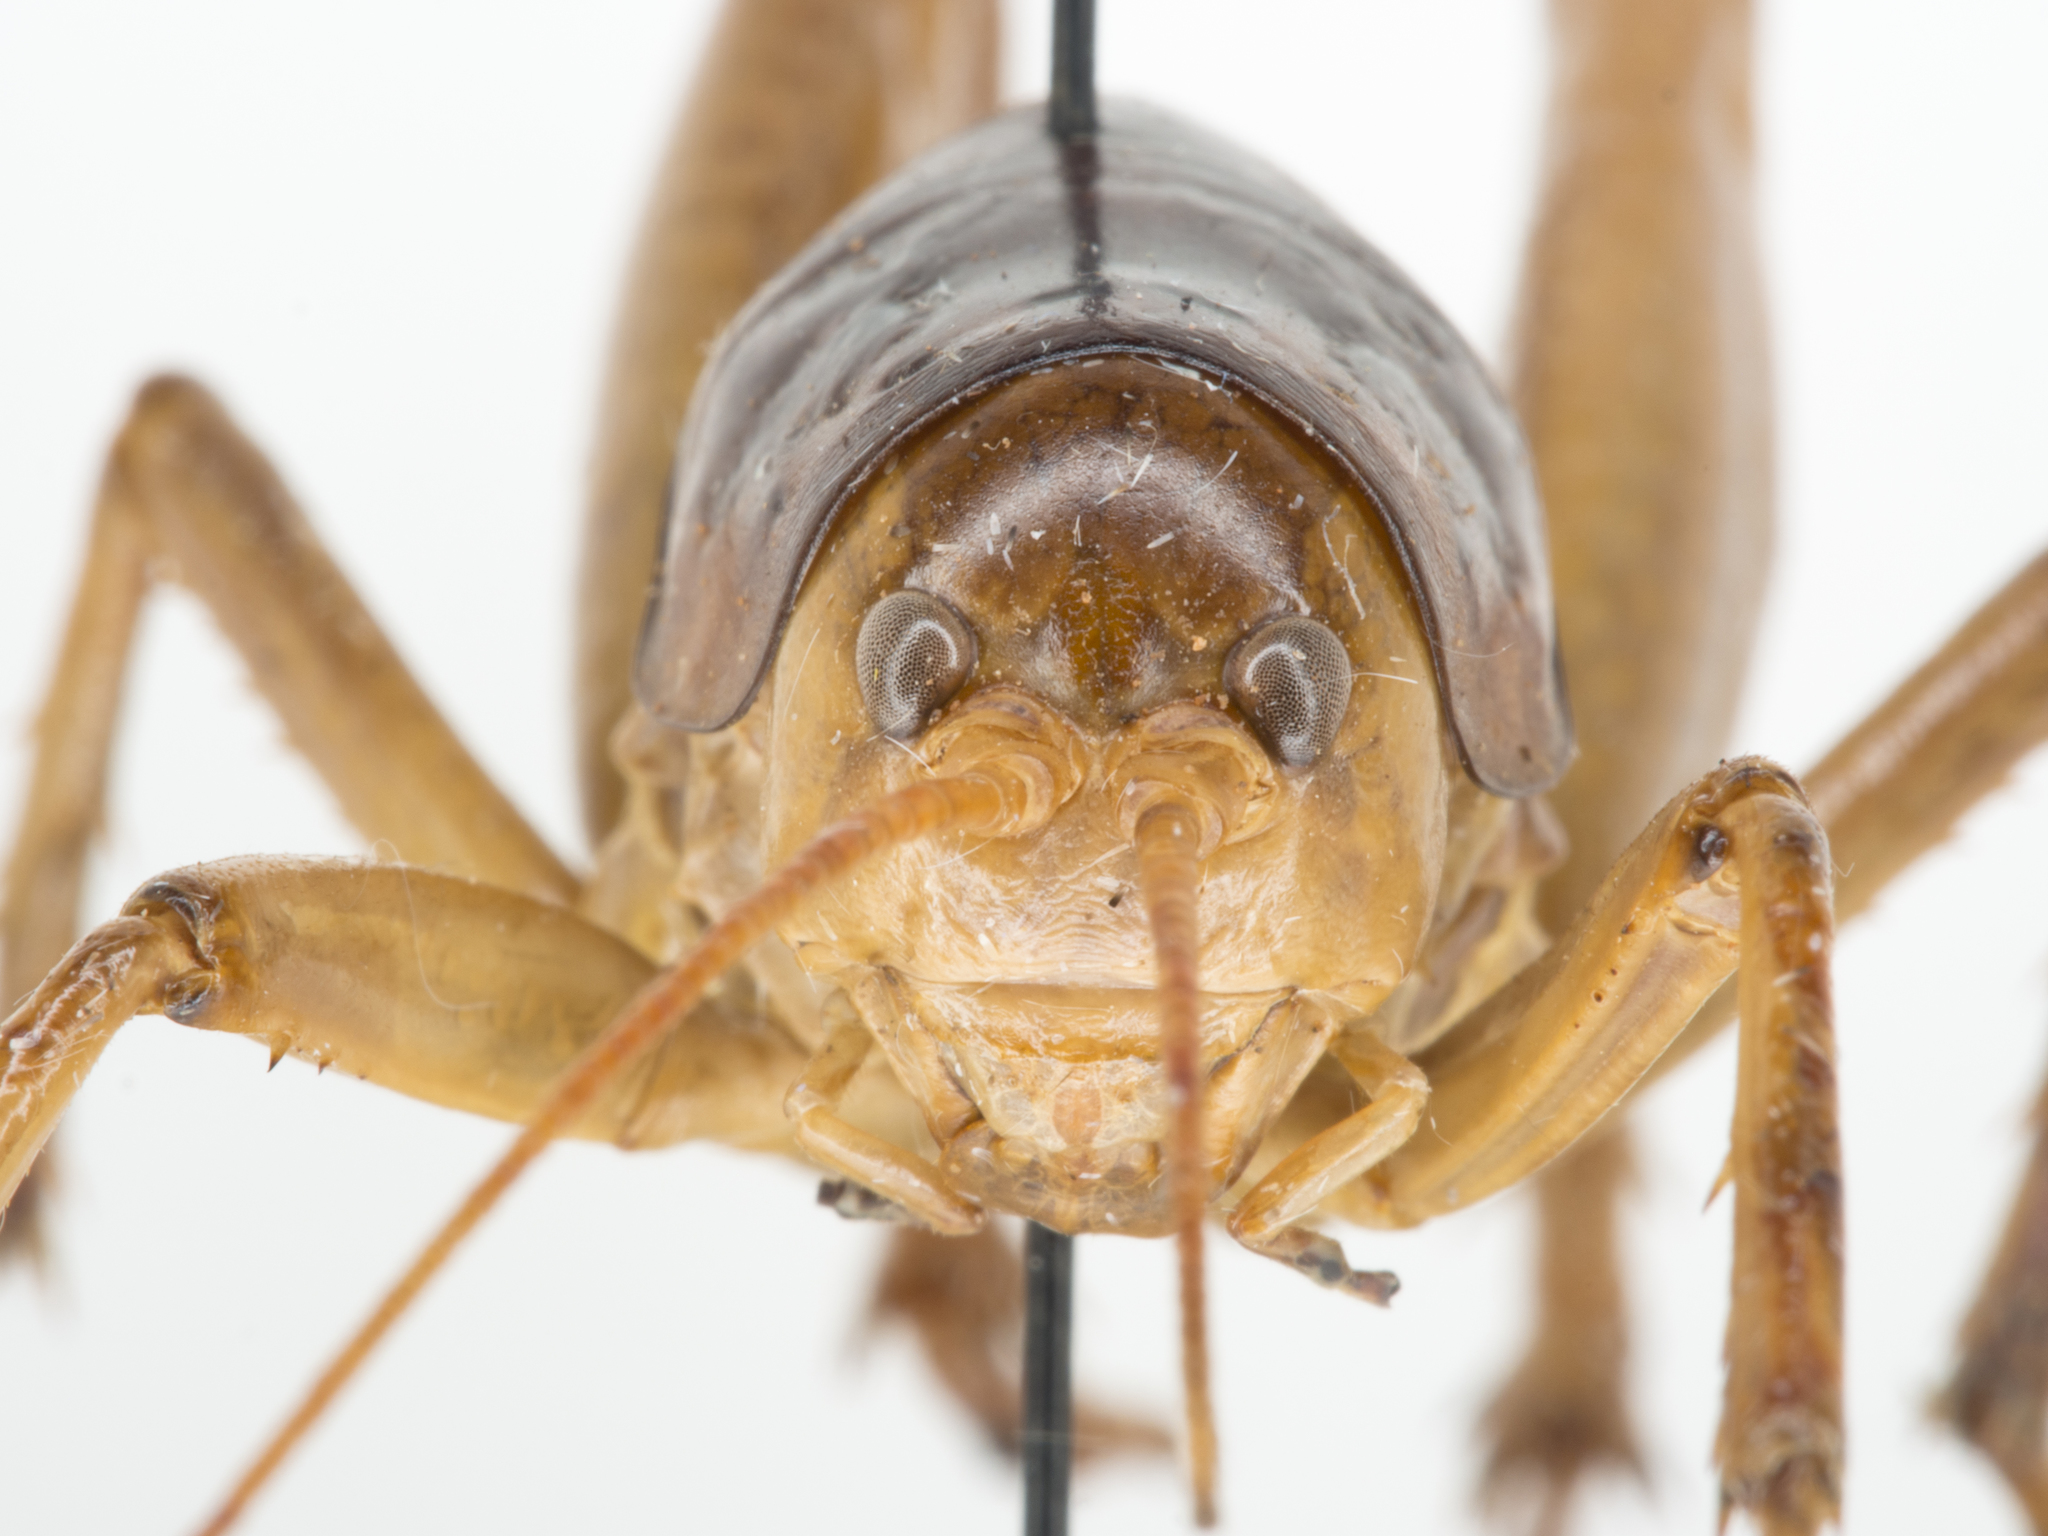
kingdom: Animalia
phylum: Arthropoda
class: Insecta
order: Orthoptera
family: Rhaphidophoridae
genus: Styracosceles
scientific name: Styracosceles neomexicanus
